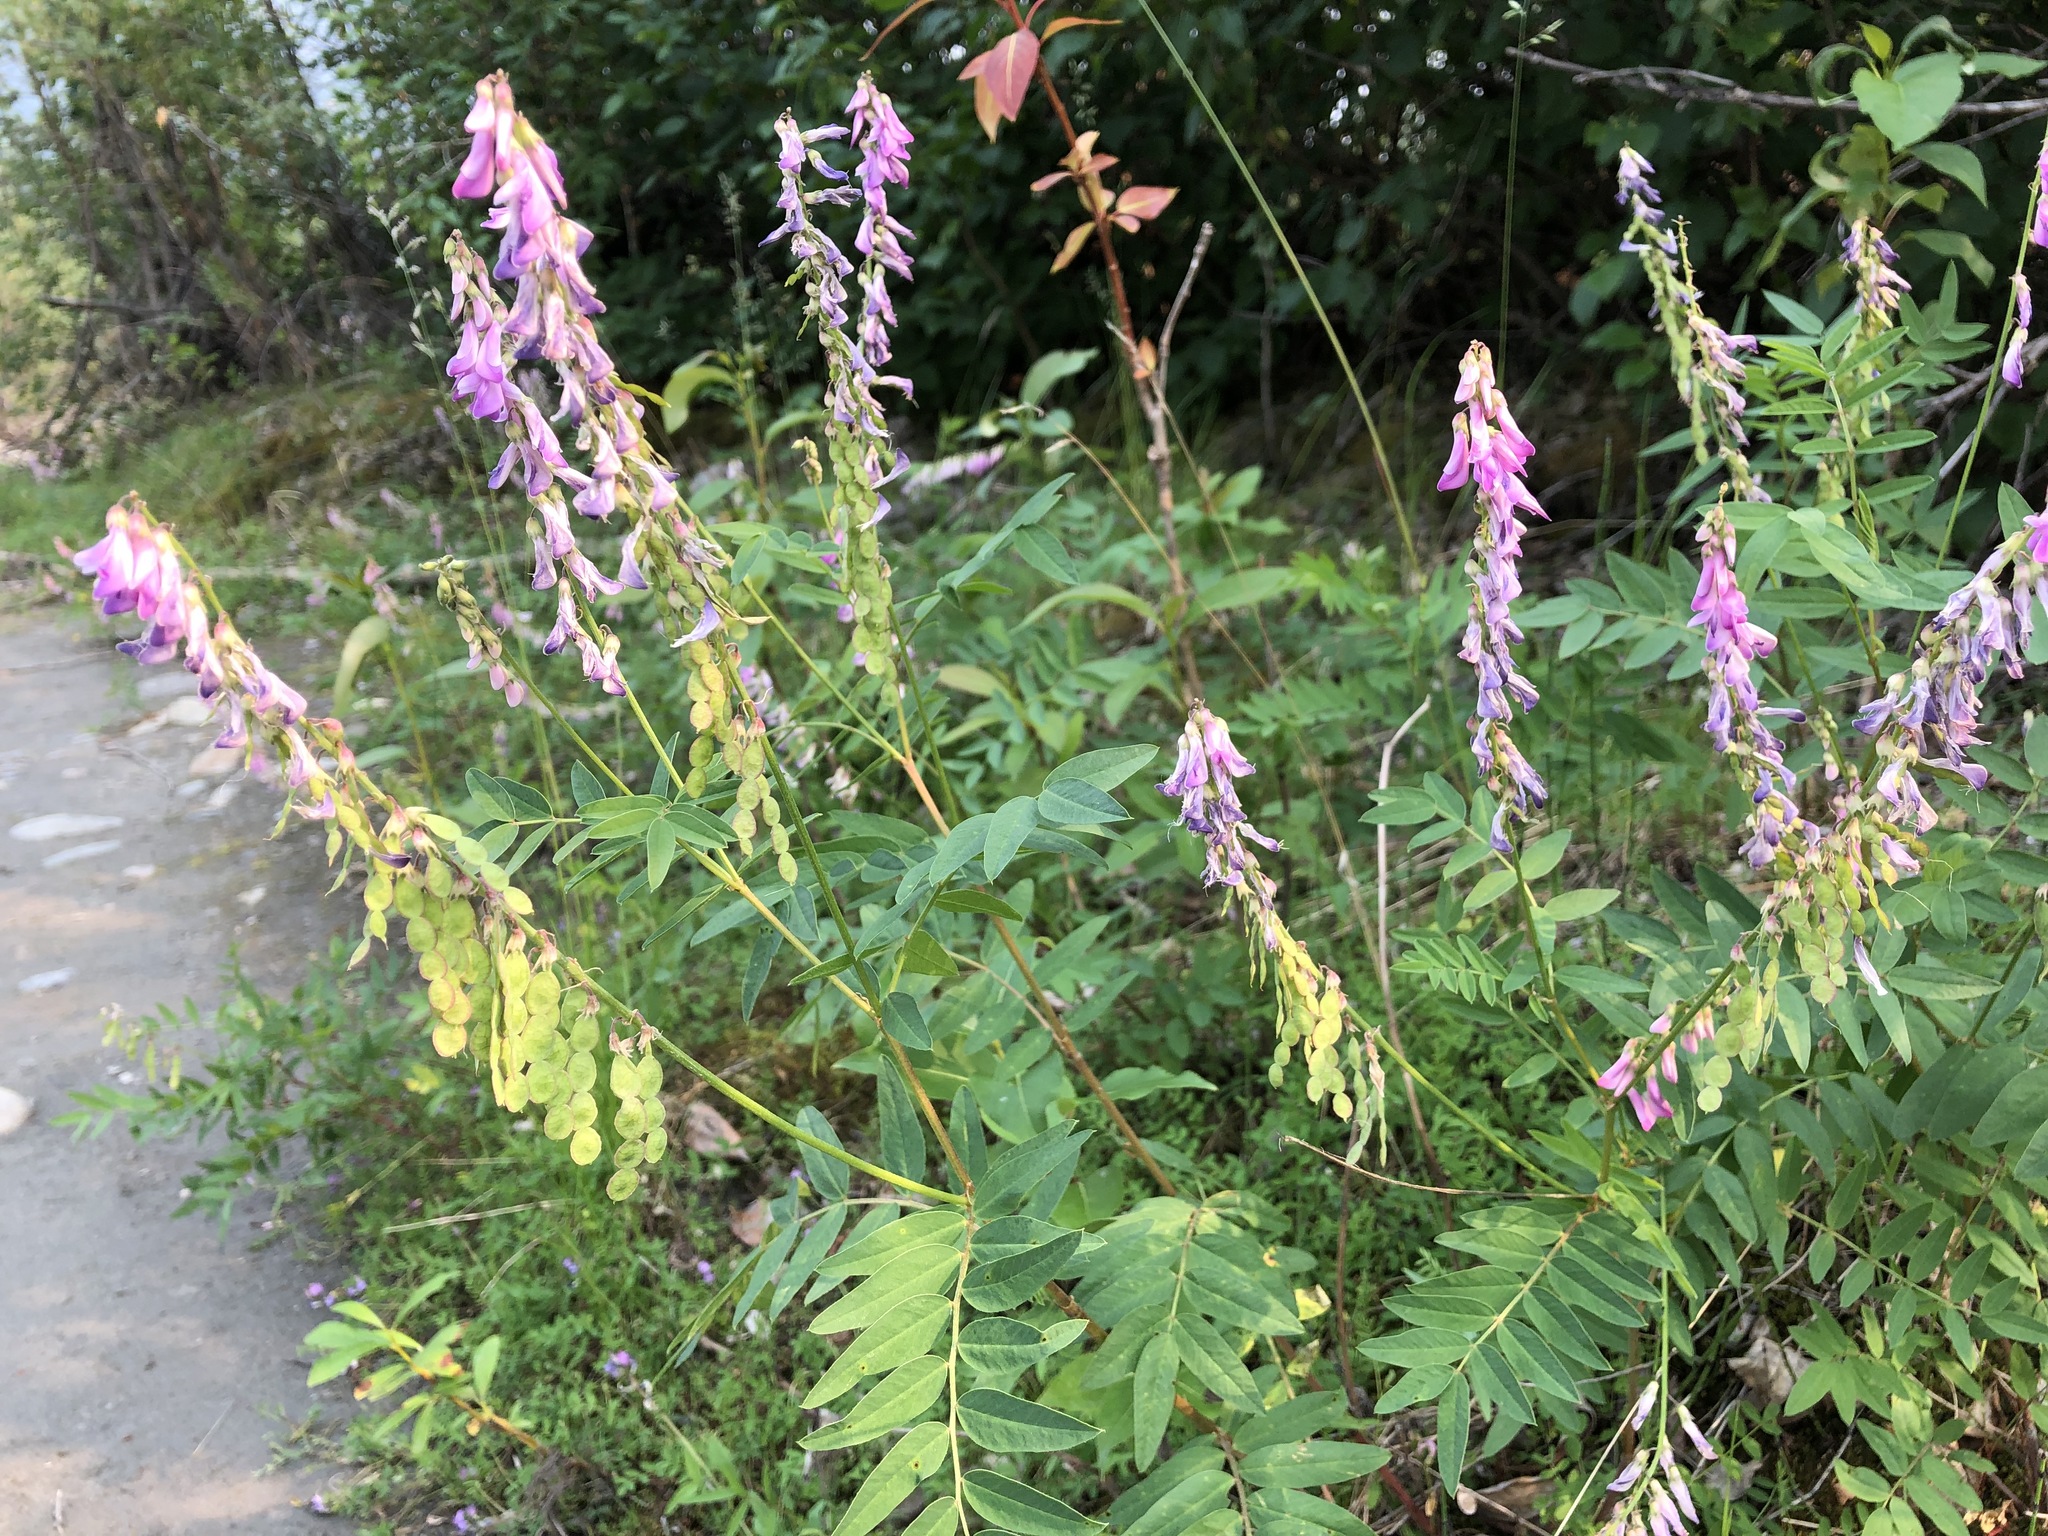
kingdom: Plantae
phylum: Tracheophyta
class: Magnoliopsida
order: Fabales
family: Fabaceae
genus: Hedysarum
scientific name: Hedysarum alpinum
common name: Alpine sweet-vetch
